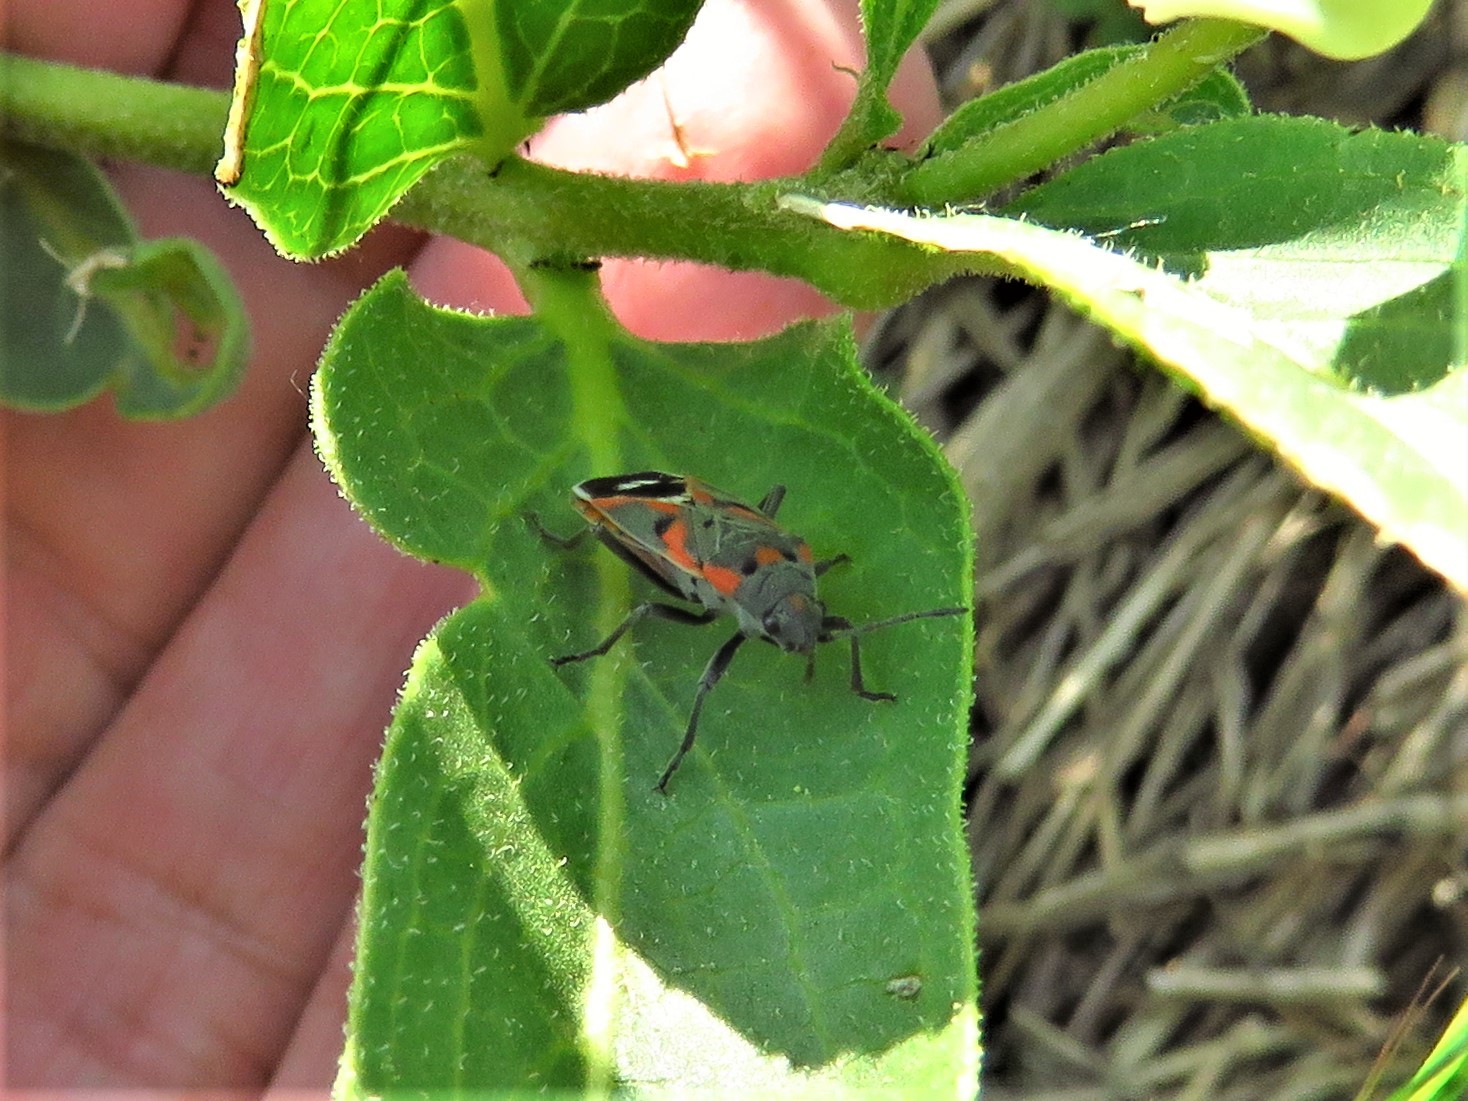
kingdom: Animalia
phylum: Arthropoda
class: Insecta
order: Hemiptera
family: Lygaeidae
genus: Lygaeus
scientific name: Lygaeus kalmii
